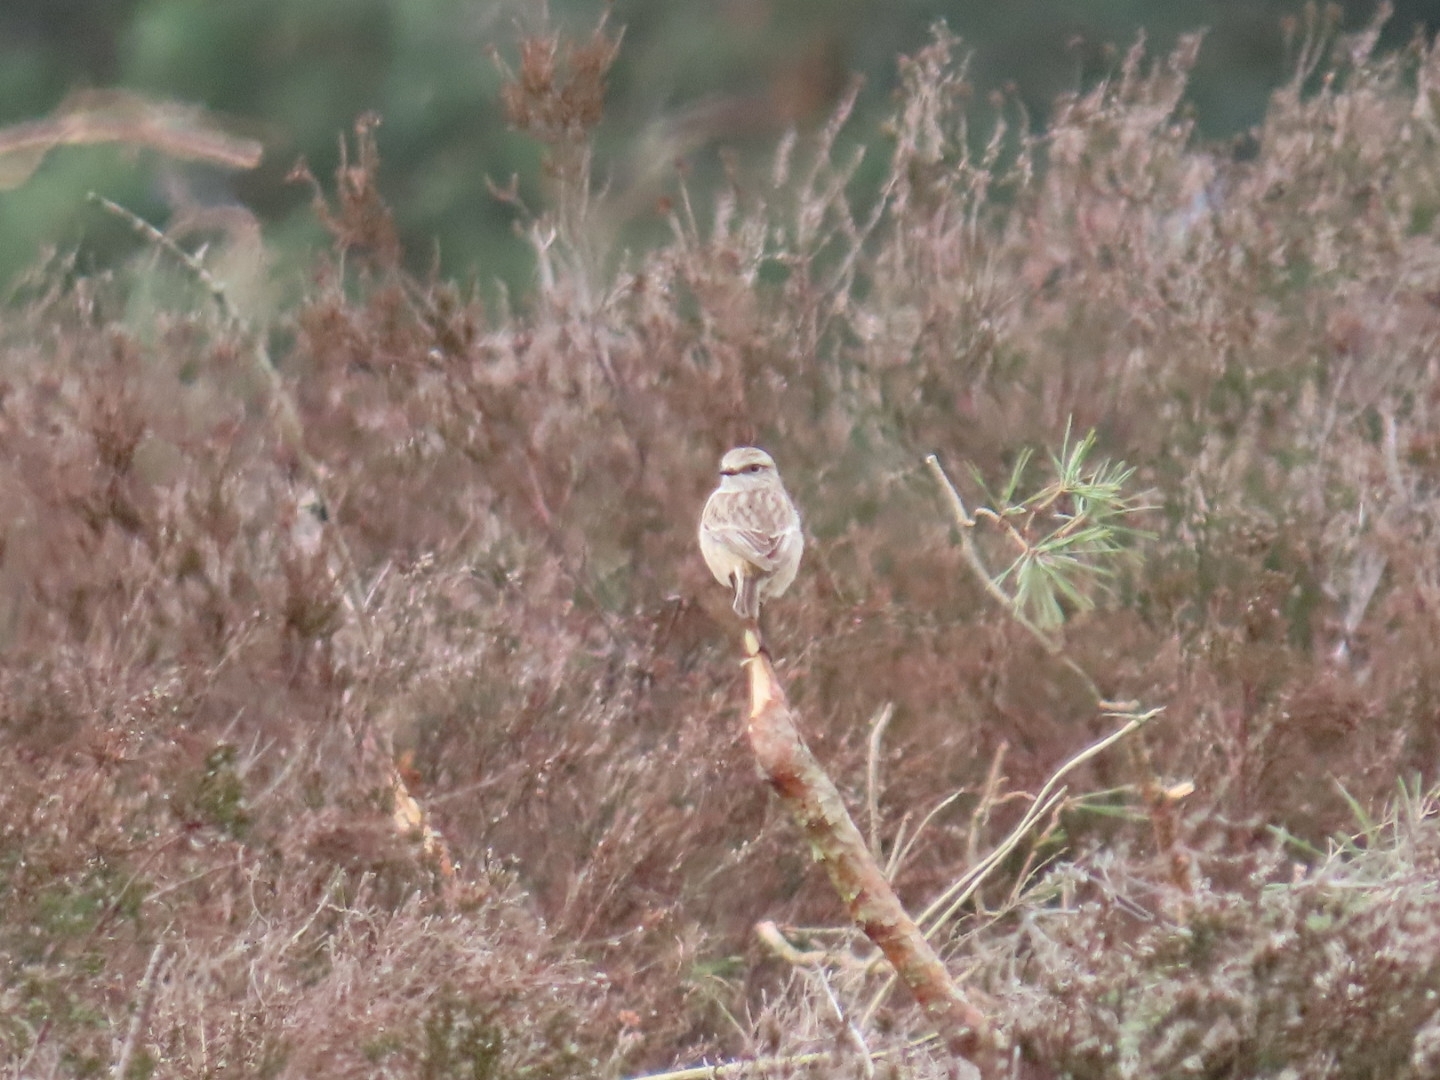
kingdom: Animalia
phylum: Chordata
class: Aves
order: Passeriformes
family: Muscicapidae
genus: Saxicola
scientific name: Saxicola rubicola
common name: European stonechat
